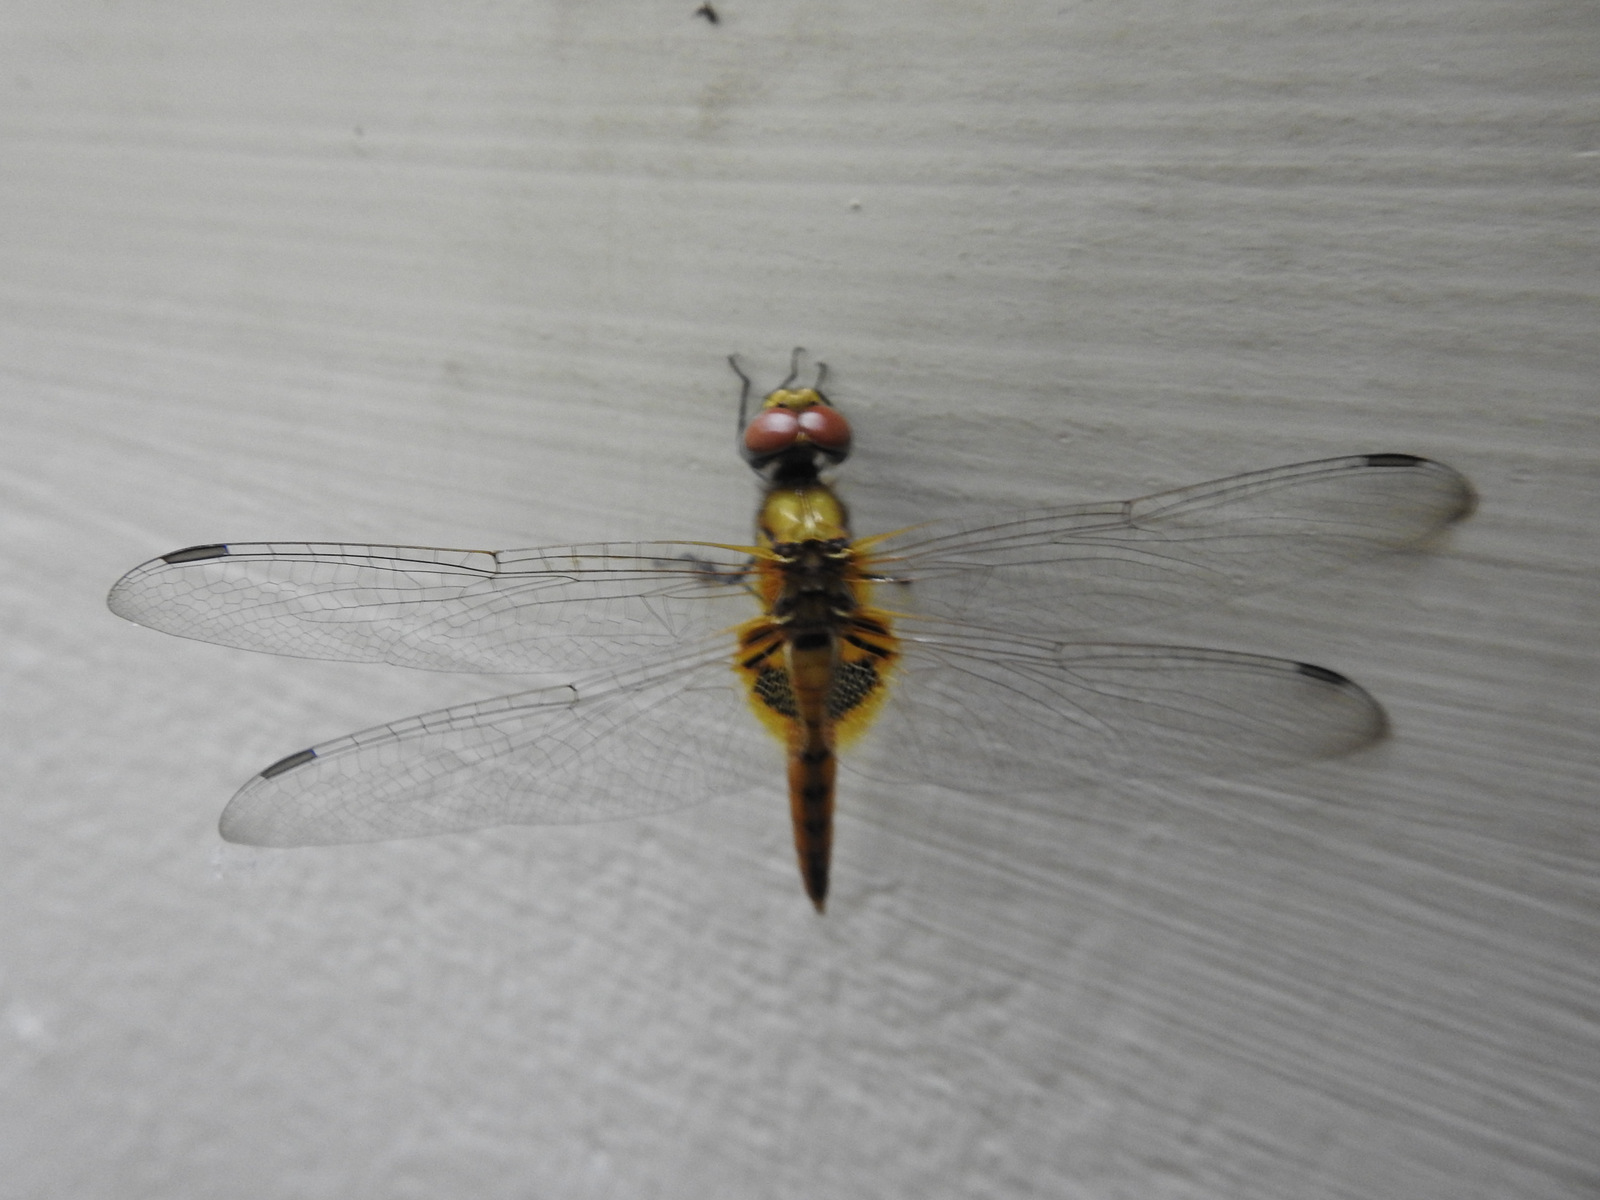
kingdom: Animalia
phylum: Arthropoda
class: Insecta
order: Odonata
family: Libellulidae
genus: Urothemis
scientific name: Urothemis signata
